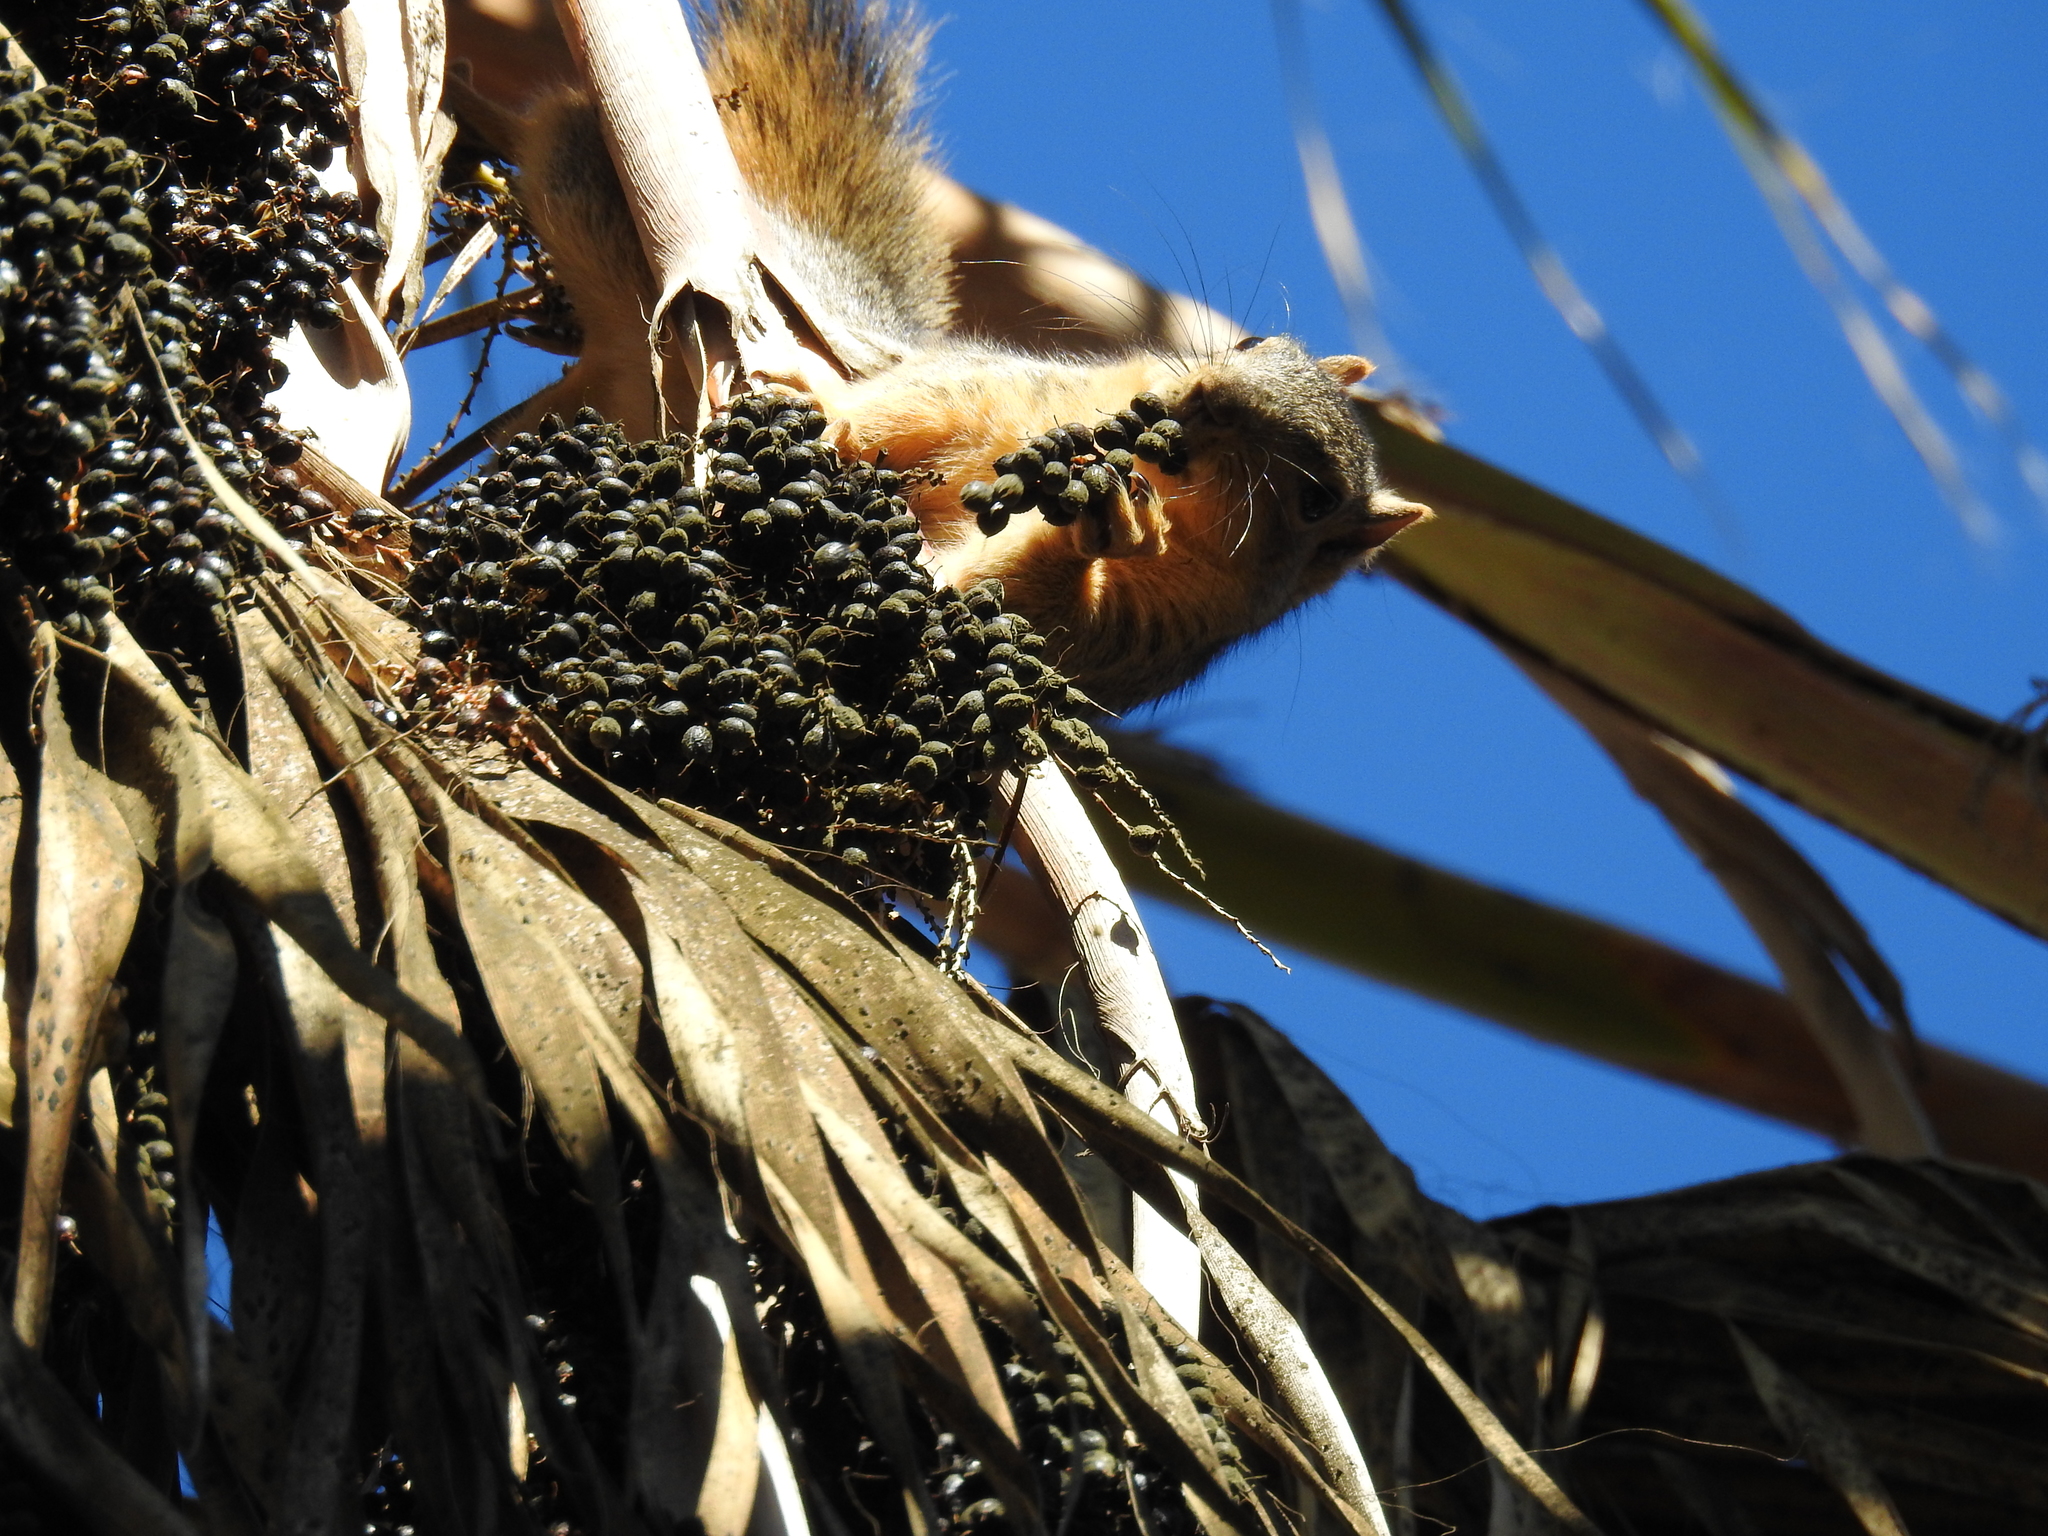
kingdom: Animalia
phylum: Chordata
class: Mammalia
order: Rodentia
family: Sciuridae
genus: Sciurus
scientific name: Sciurus niger
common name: Fox squirrel
